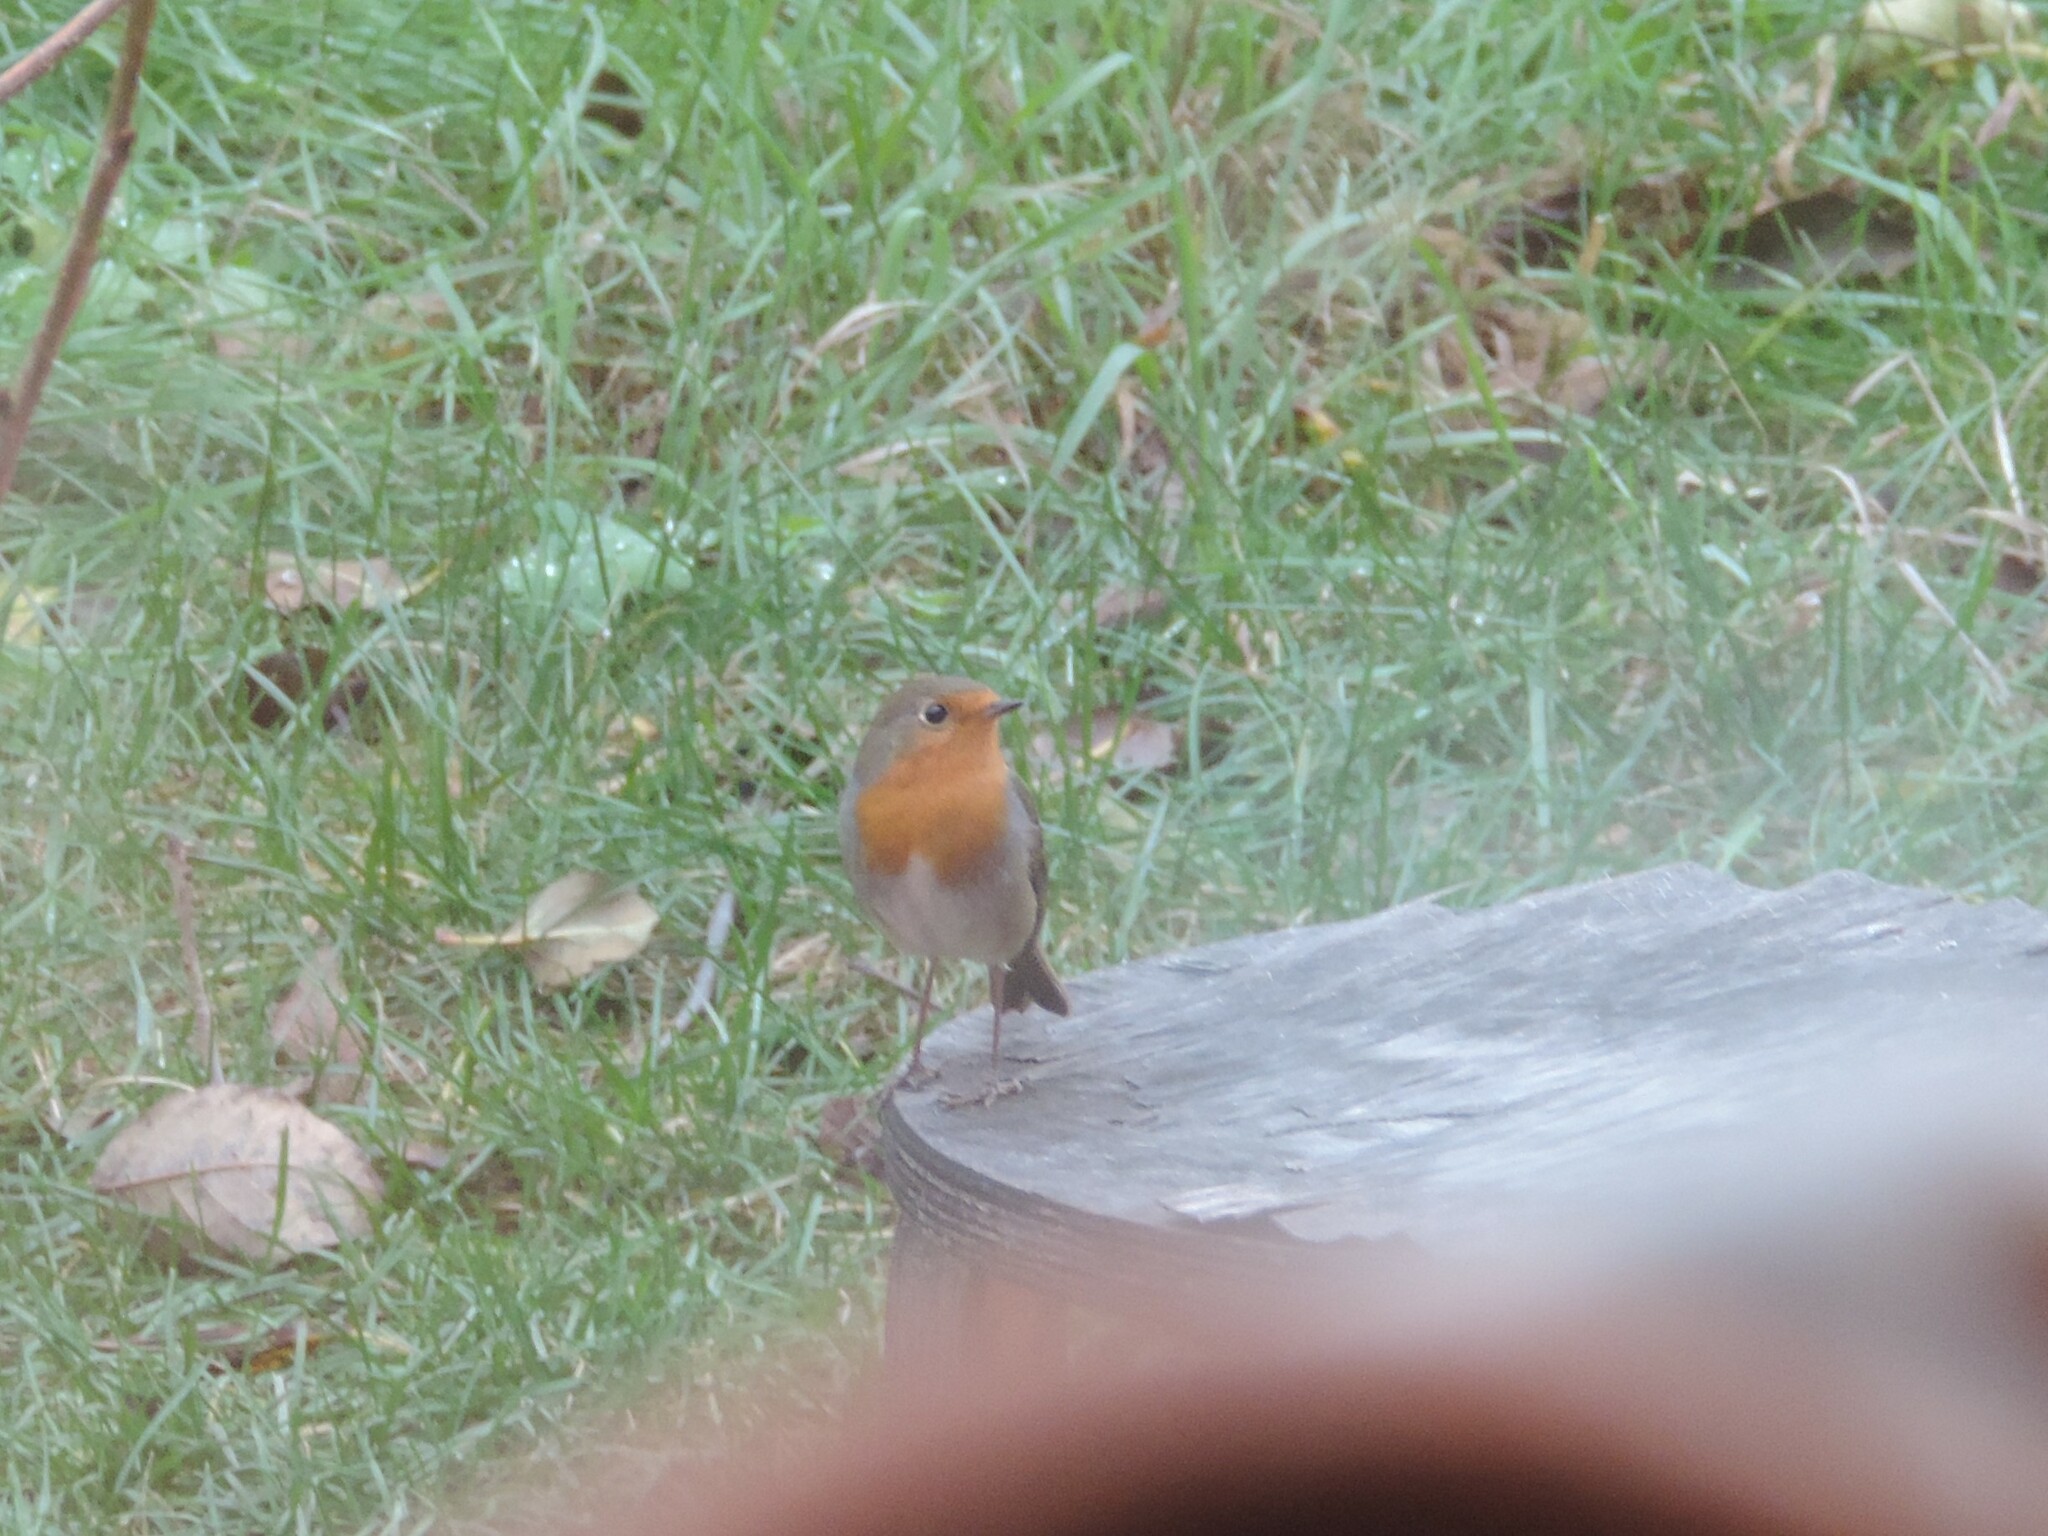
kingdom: Animalia
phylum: Chordata
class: Aves
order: Passeriformes
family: Muscicapidae
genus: Erithacus
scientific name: Erithacus rubecula
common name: European robin
